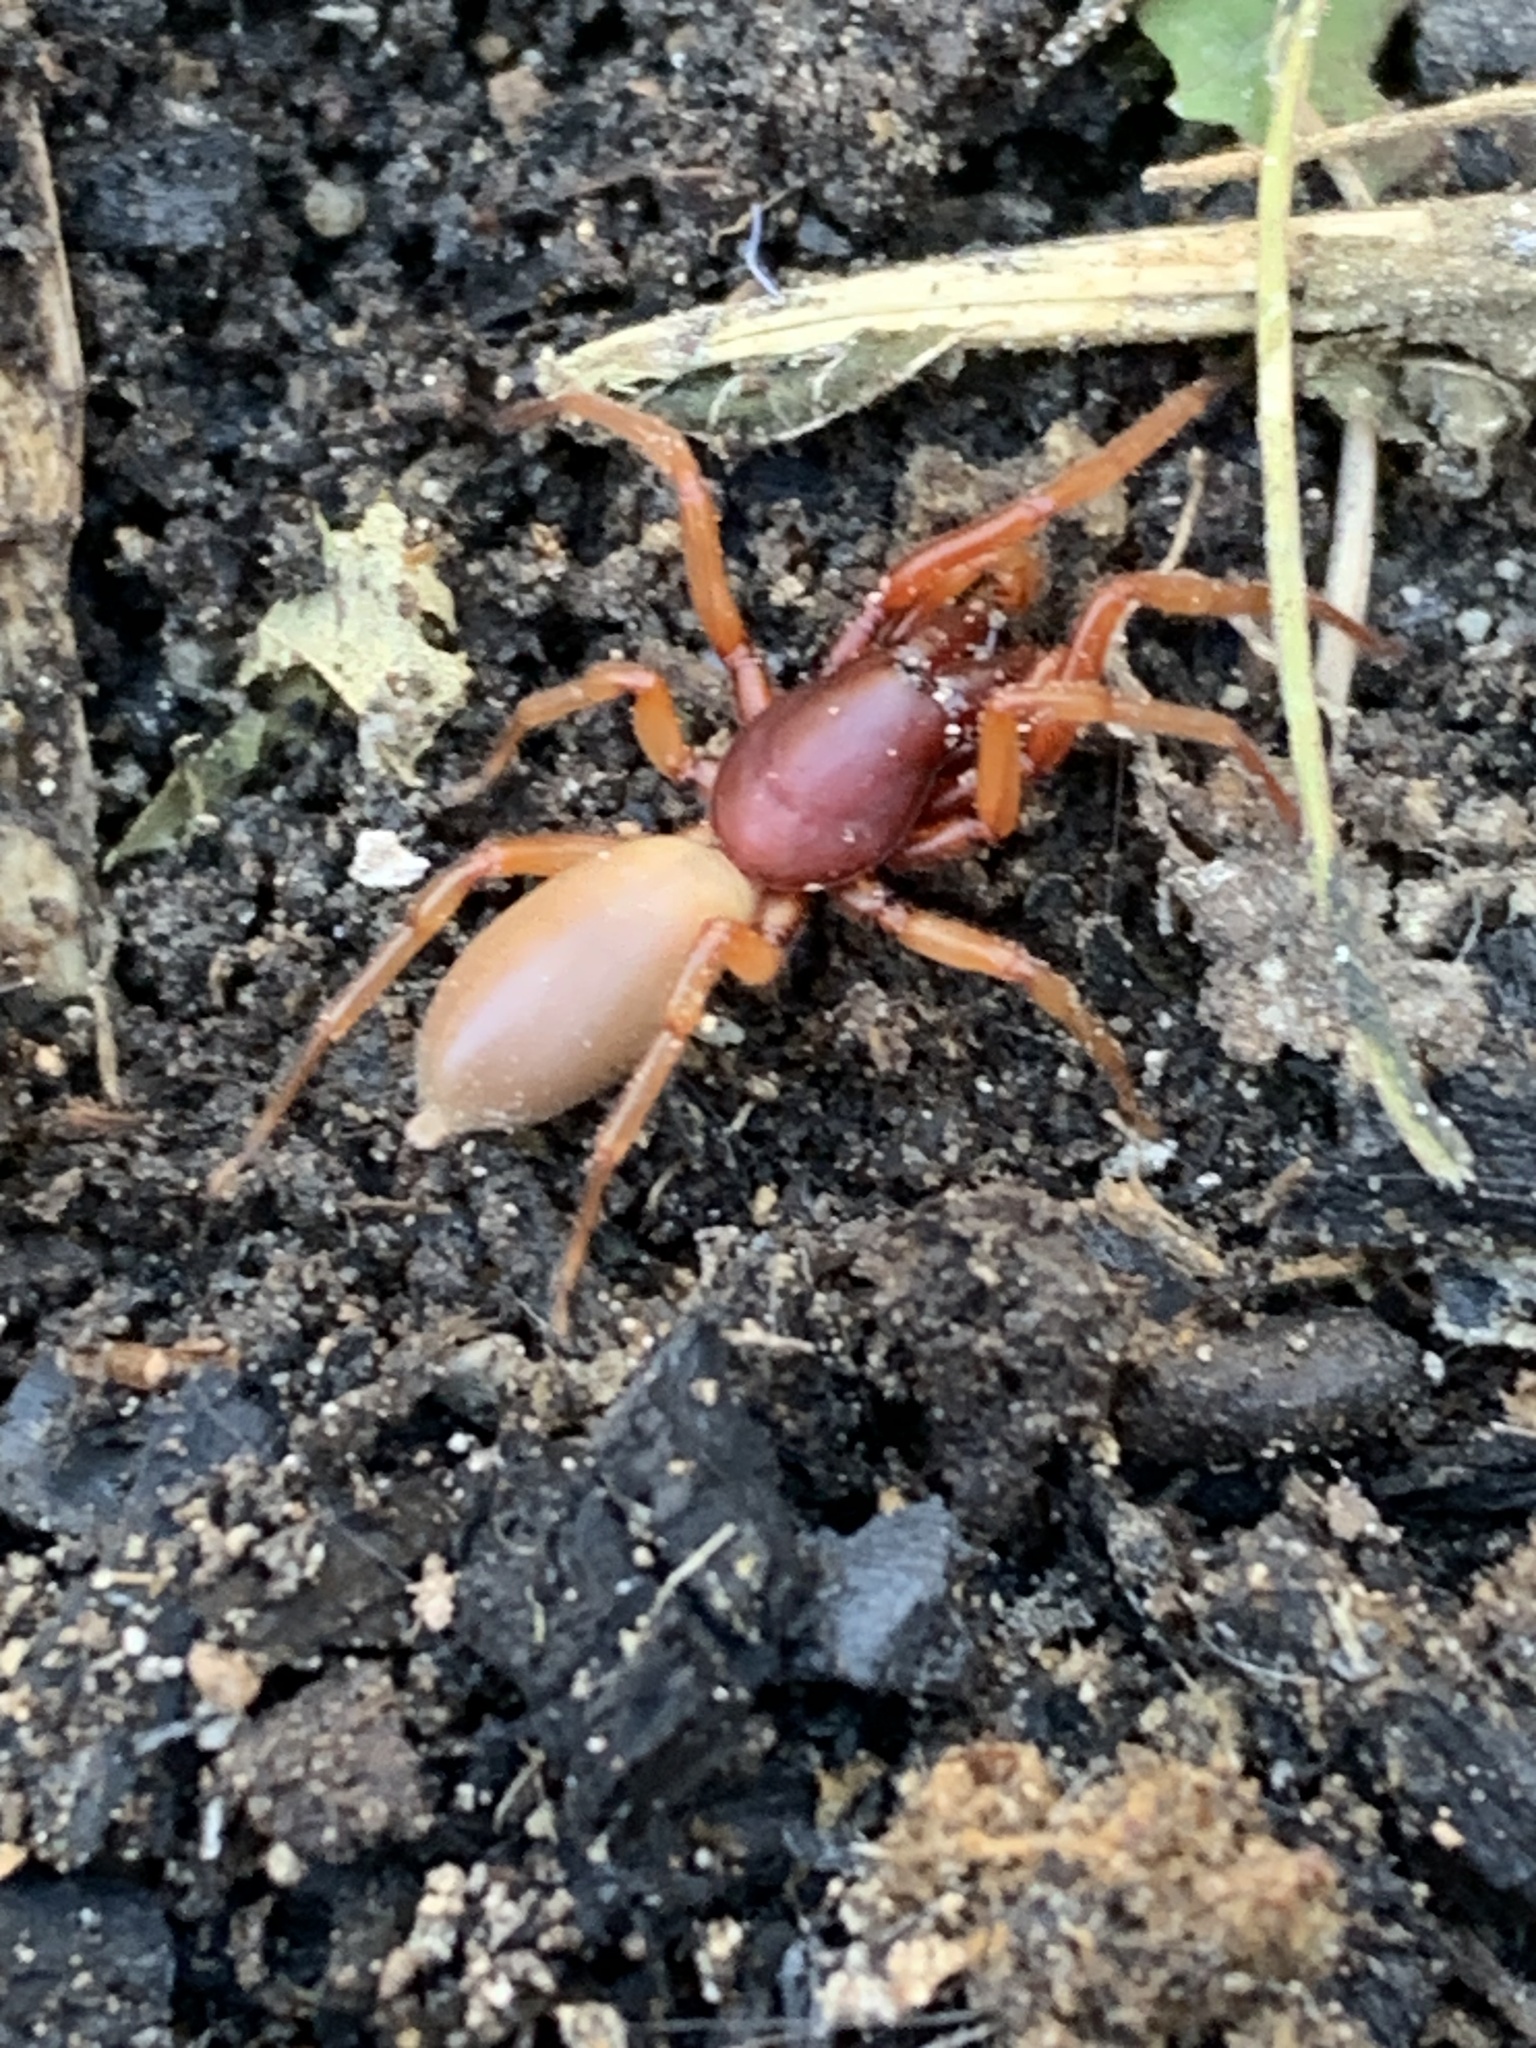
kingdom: Animalia
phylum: Arthropoda
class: Arachnida
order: Araneae
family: Dysderidae
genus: Dysdera
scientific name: Dysdera crocata
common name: Woodlouse spider
